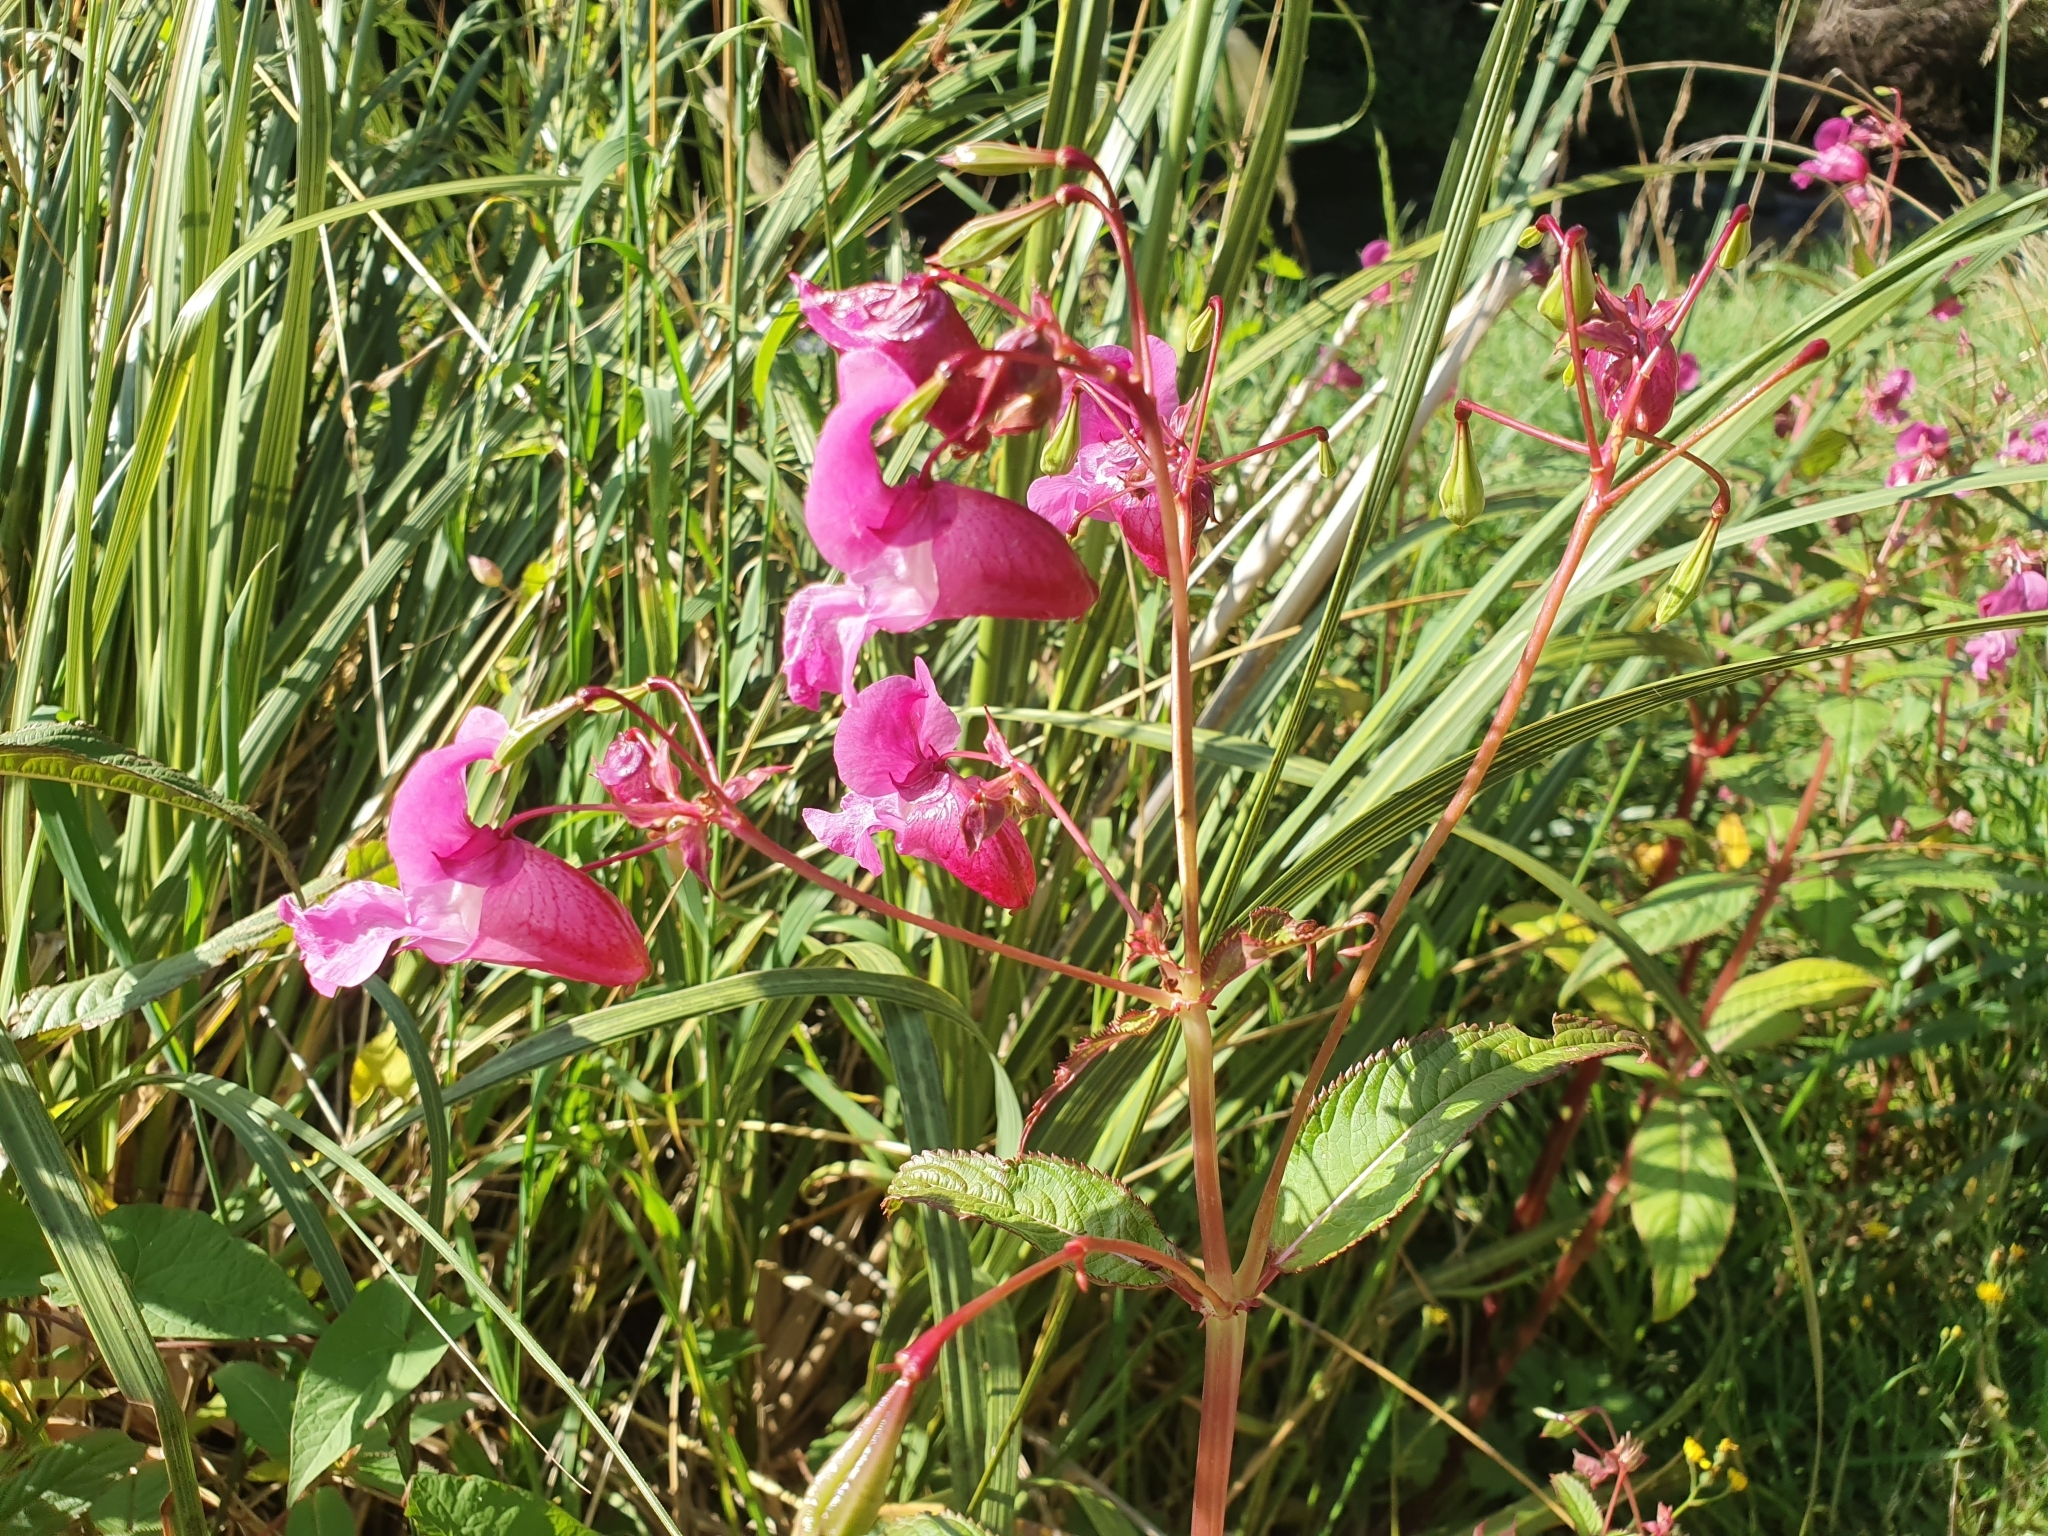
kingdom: Plantae
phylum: Tracheophyta
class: Magnoliopsida
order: Ericales
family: Balsaminaceae
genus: Impatiens
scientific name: Impatiens glandulifera
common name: Himalayan balsam
